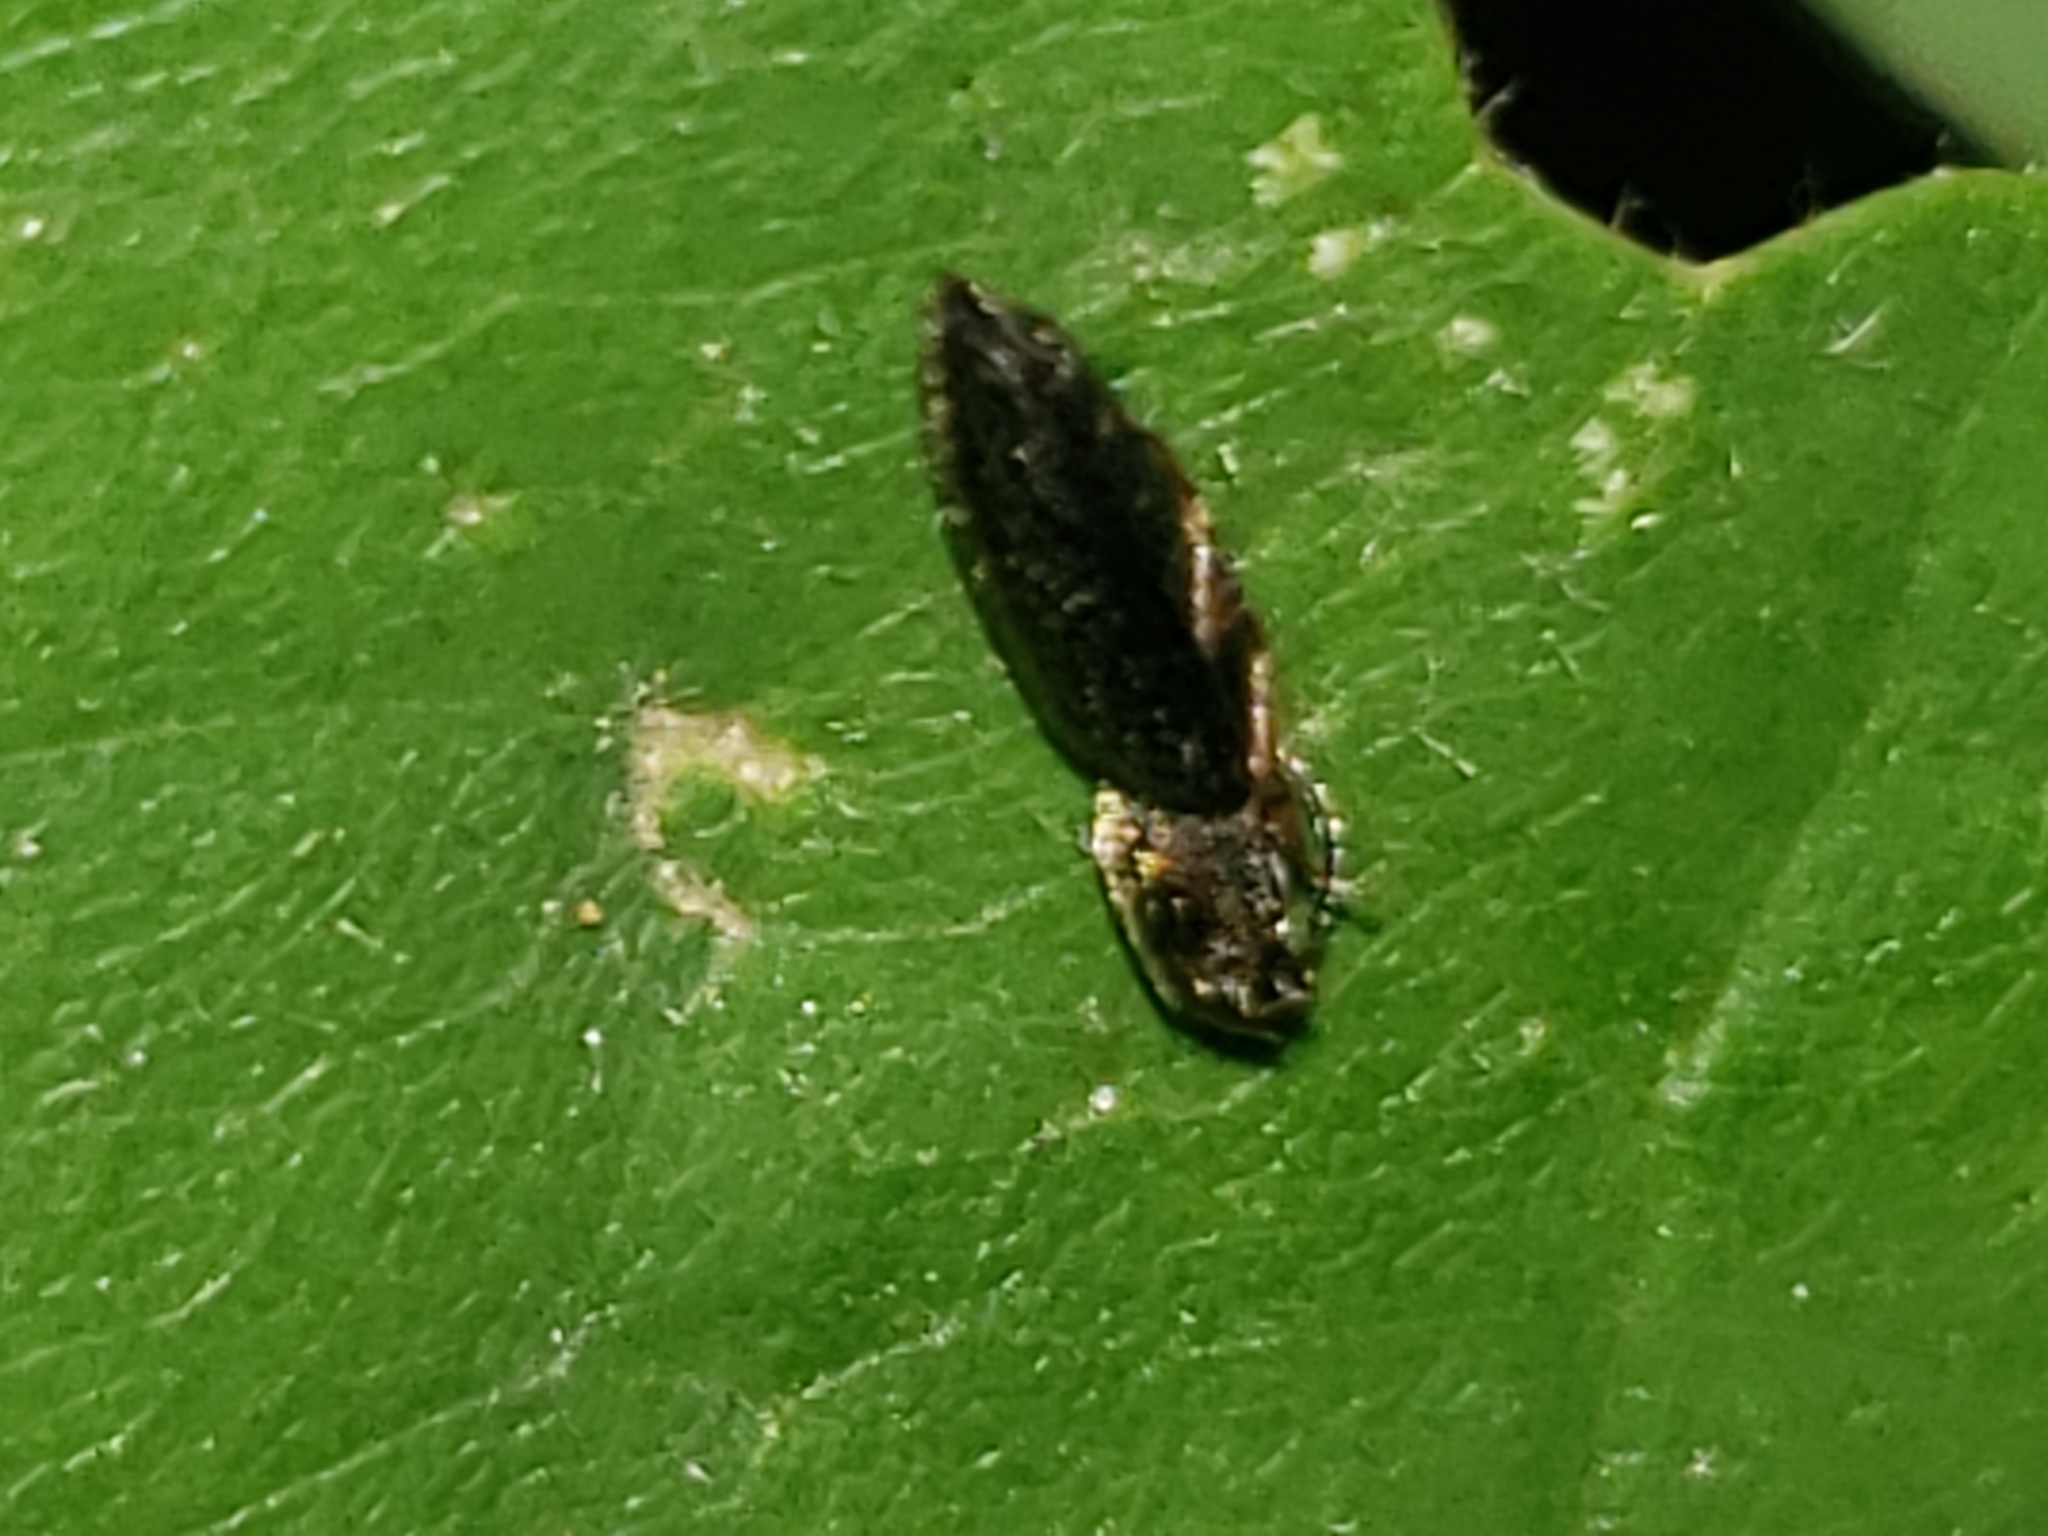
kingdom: Animalia
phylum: Arthropoda
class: Insecta
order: Coleoptera
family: Elateridae
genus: Limonius
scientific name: Limonius quercinus
